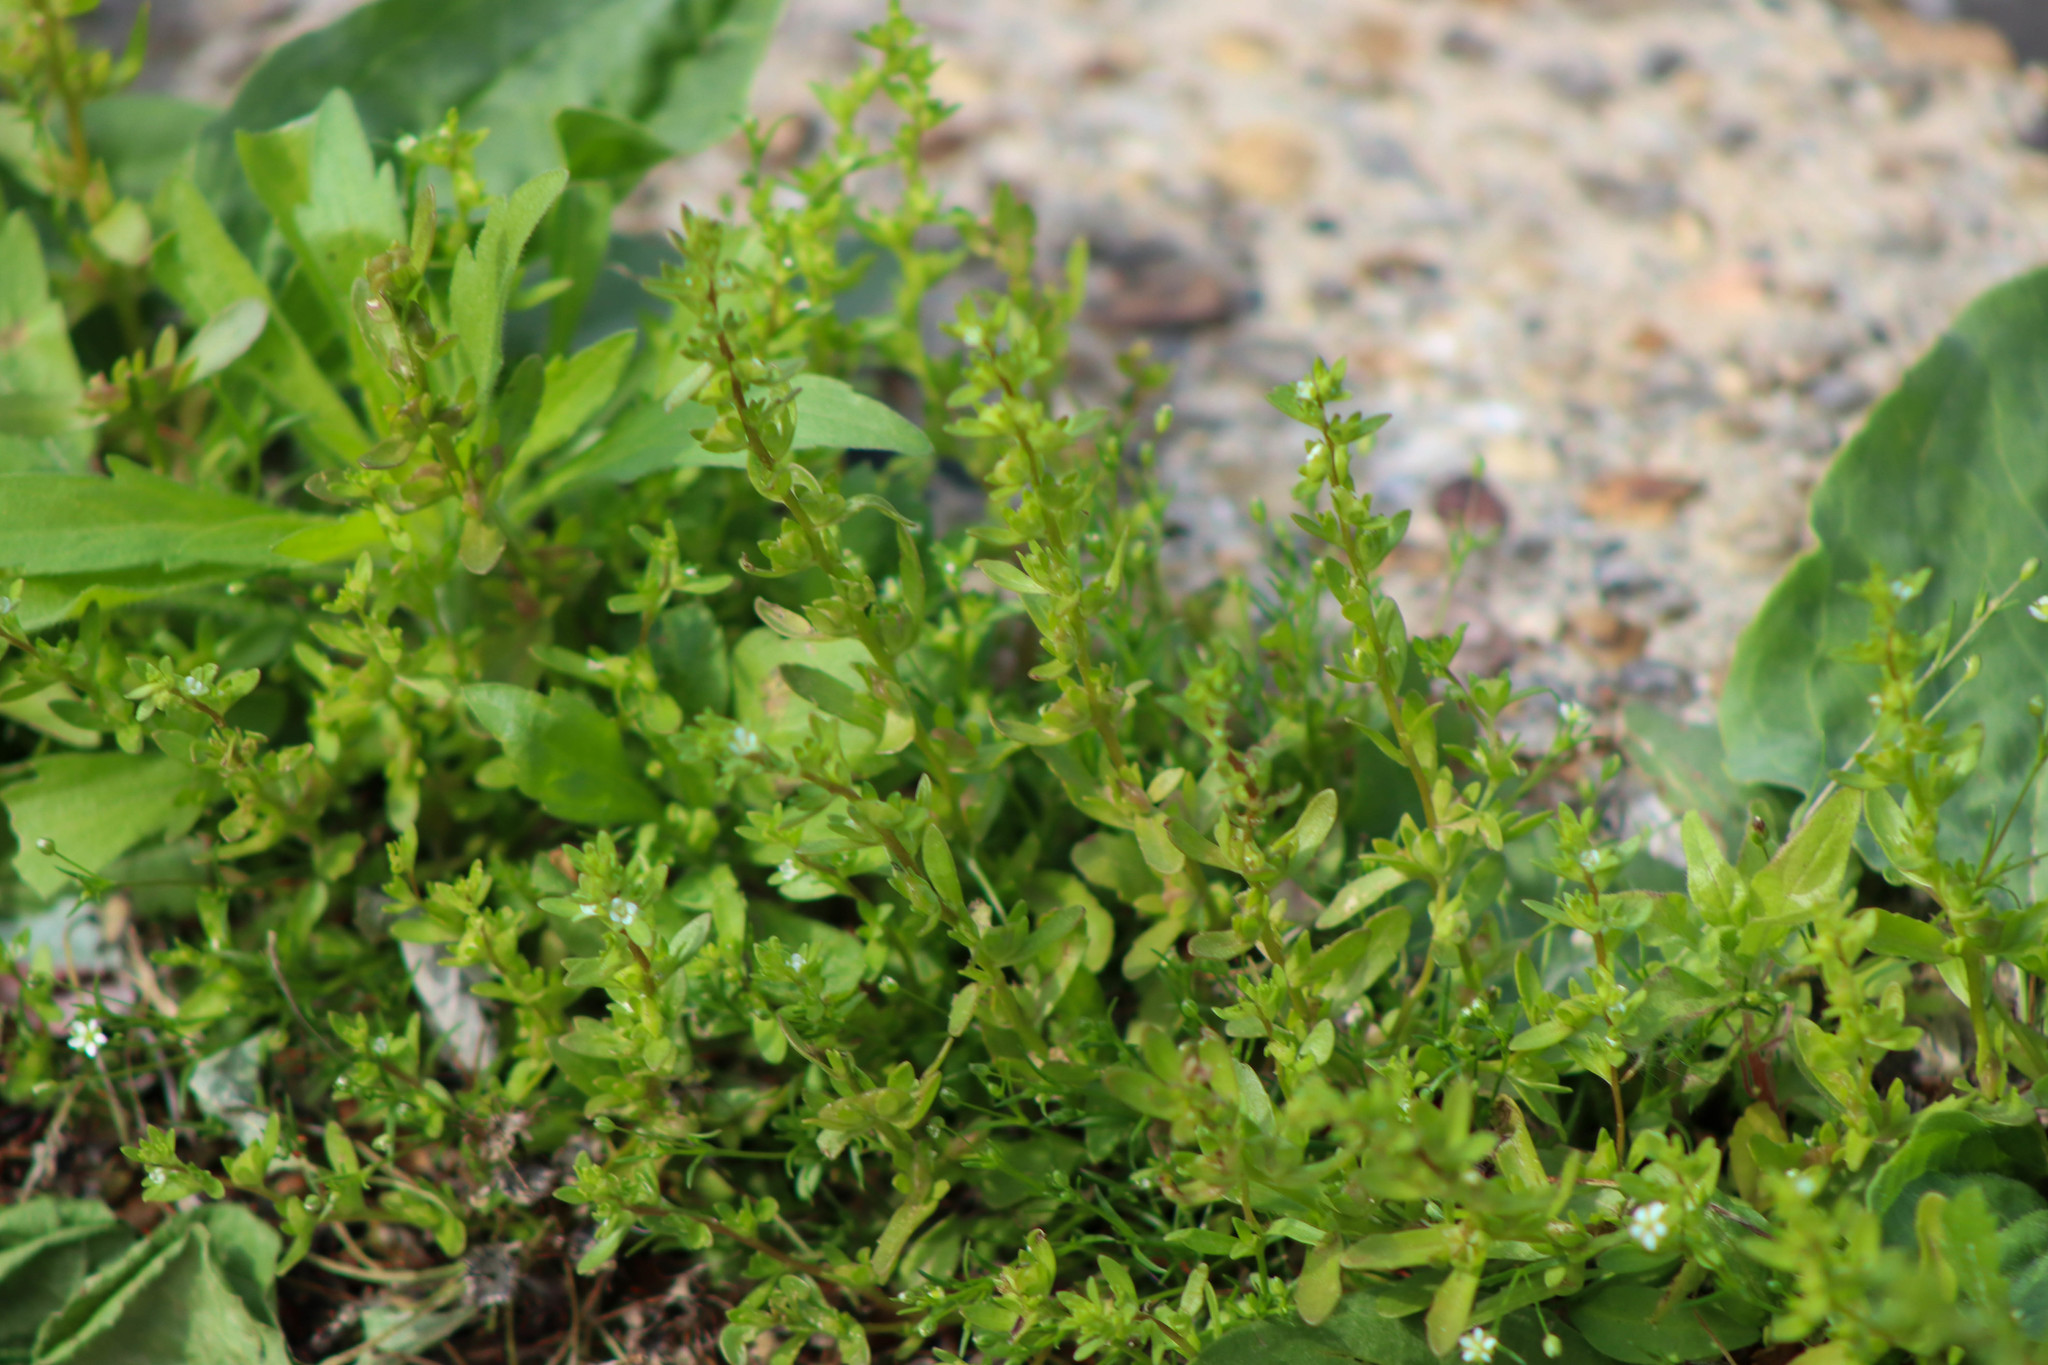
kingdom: Plantae
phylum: Tracheophyta
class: Magnoliopsida
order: Lamiales
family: Plantaginaceae
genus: Veronica
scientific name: Veronica peregrina
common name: Neckweed
